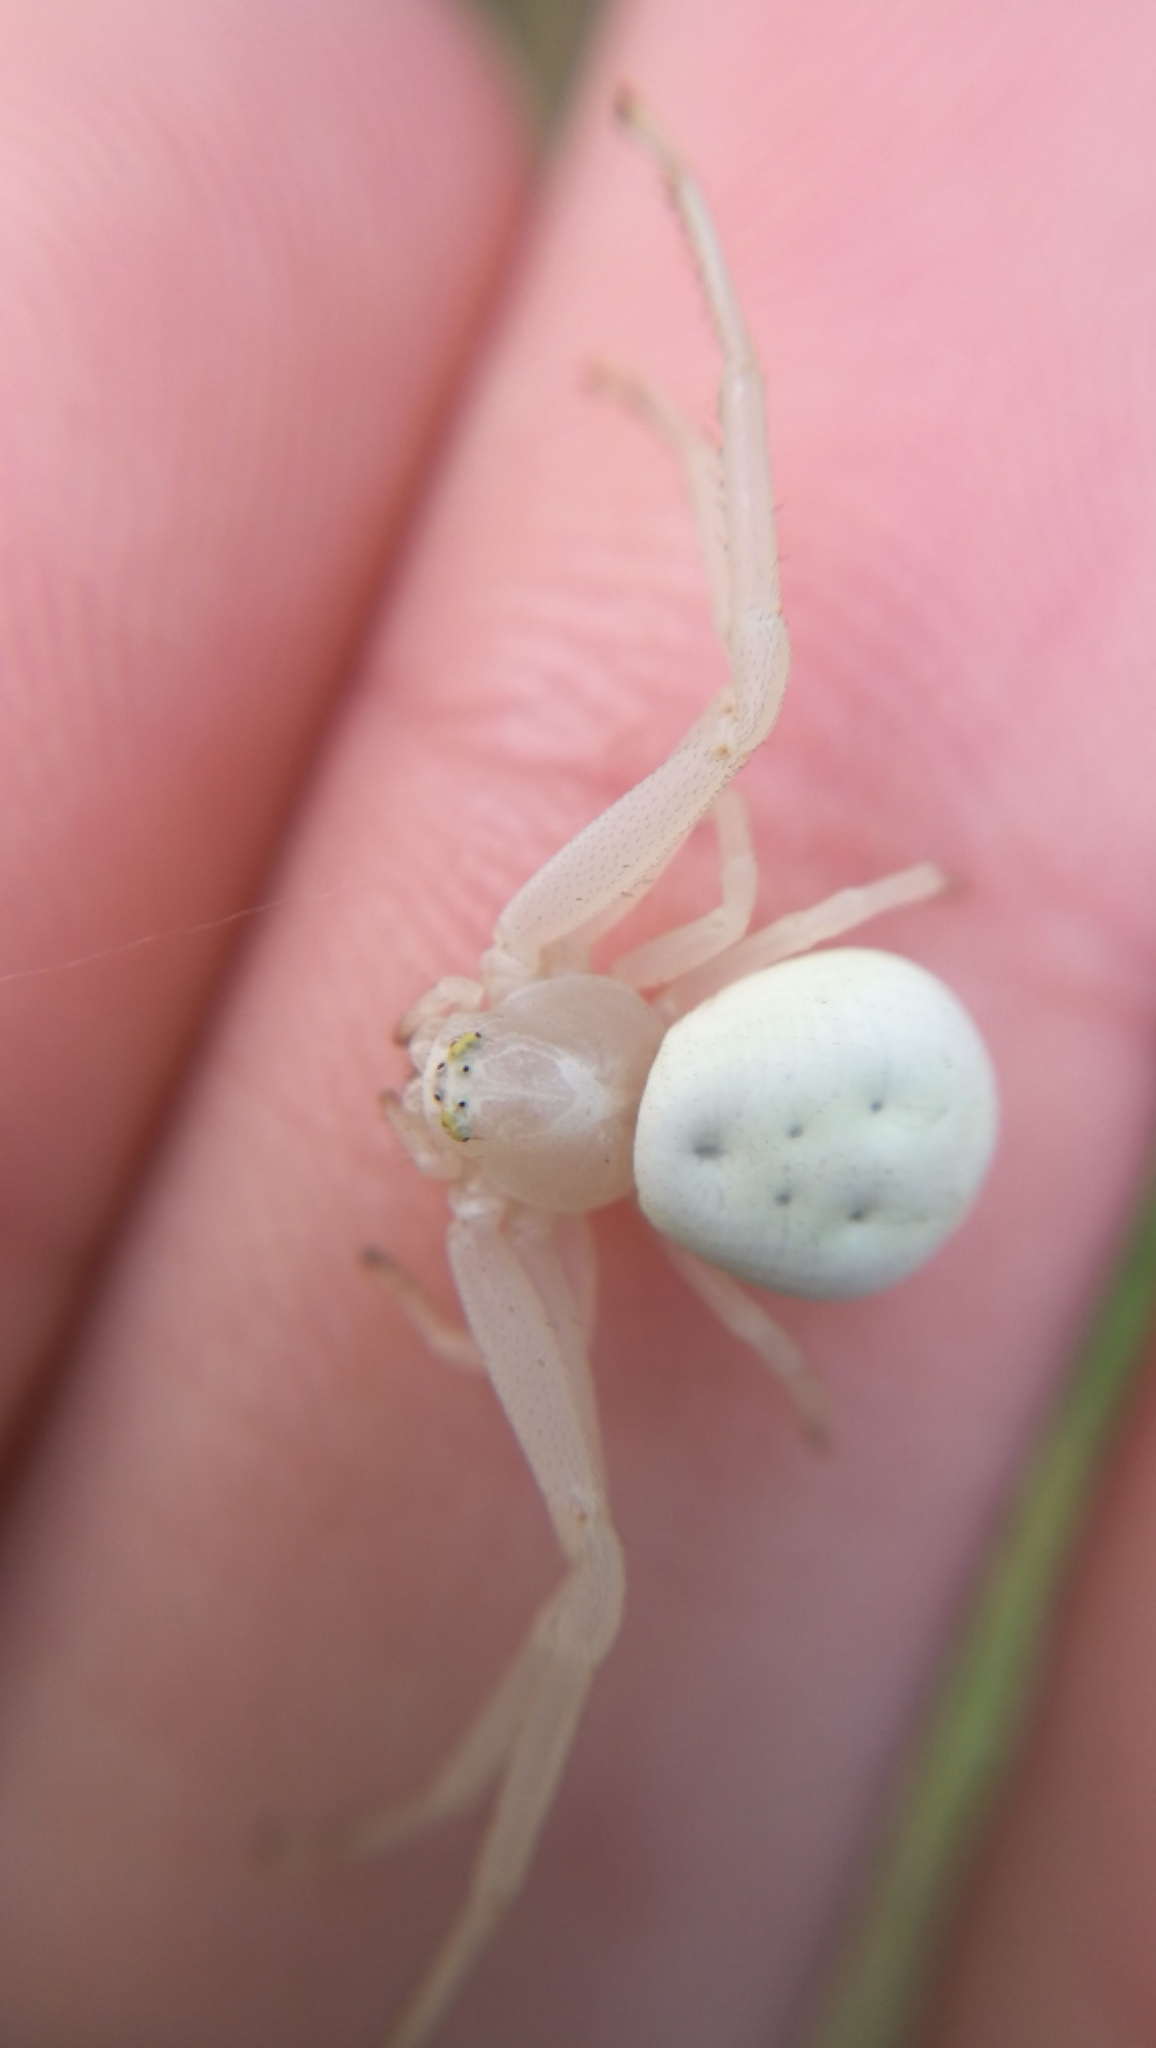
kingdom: Animalia
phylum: Arthropoda
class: Arachnida
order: Araneae
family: Thomisidae
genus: Misumena
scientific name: Misumena vatia
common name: Goldenrod crab spider
